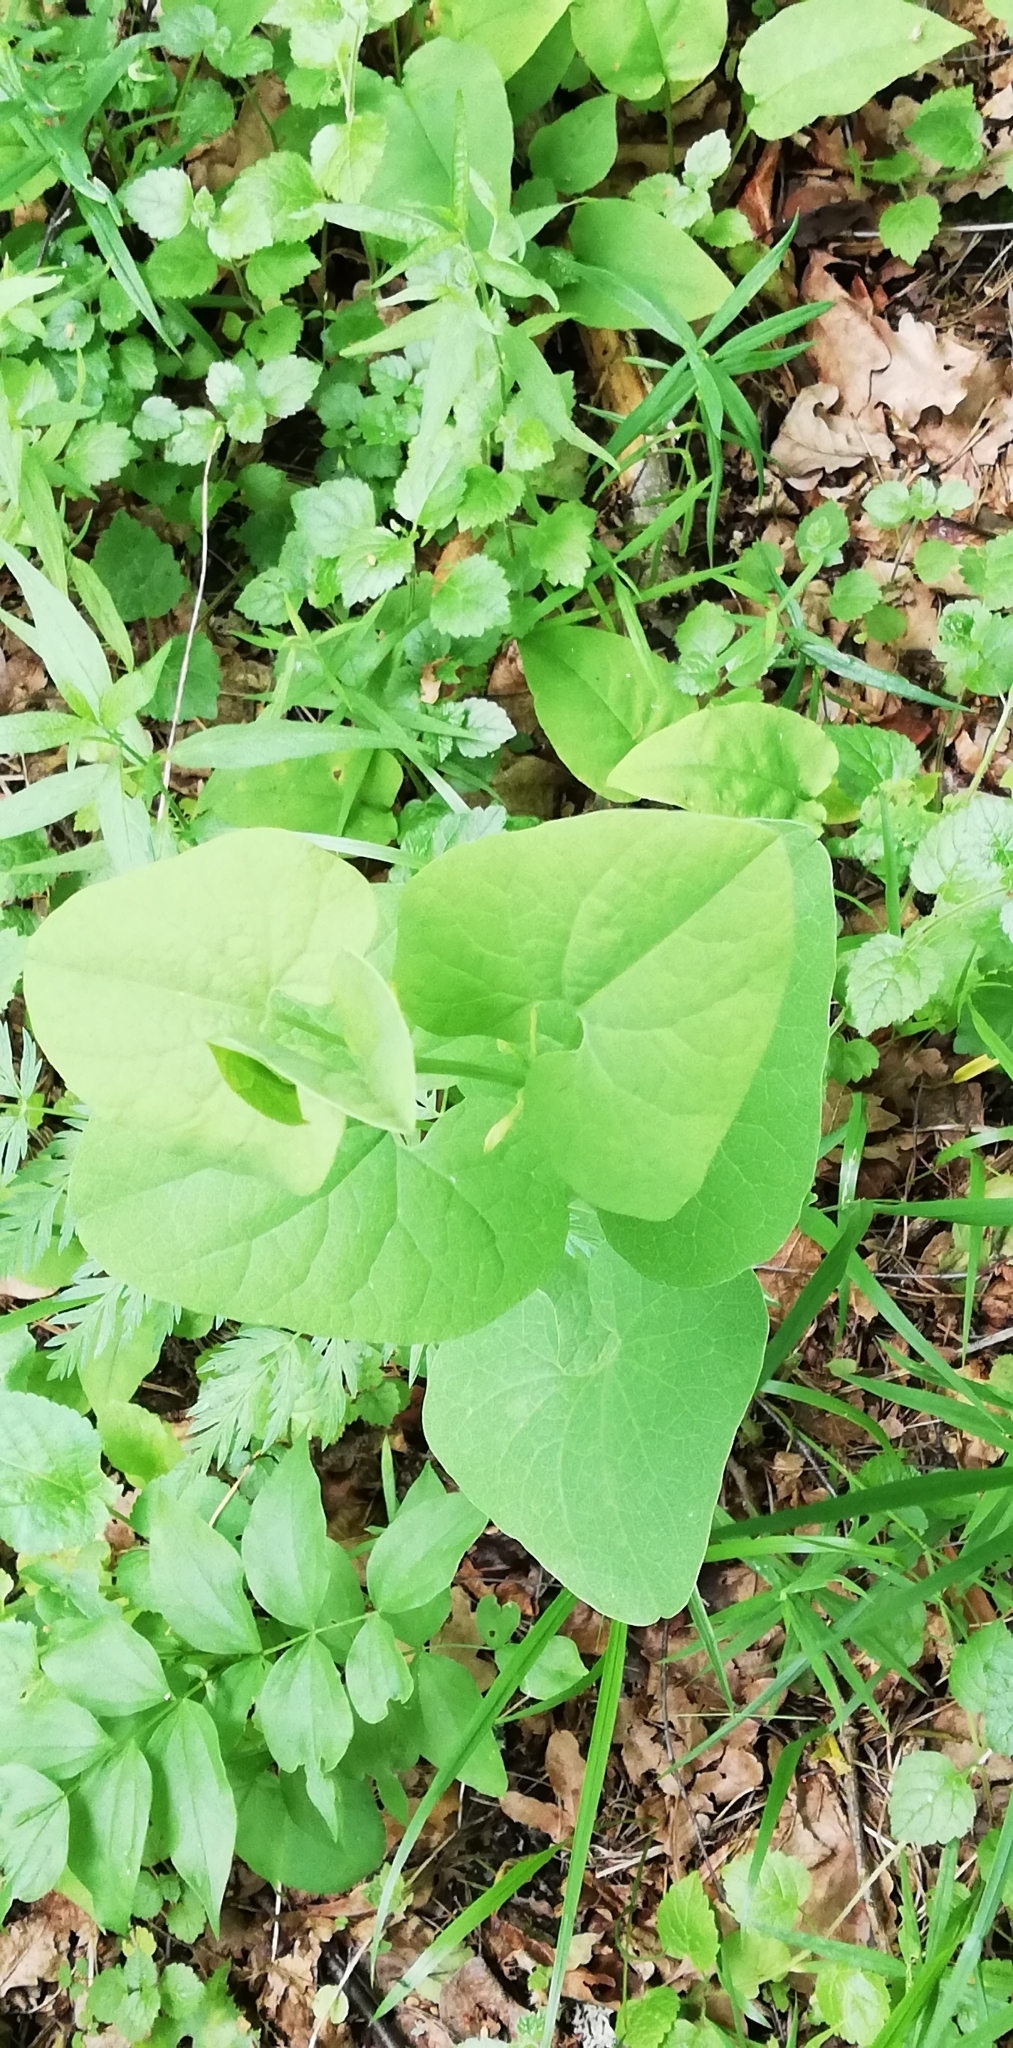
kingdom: Plantae
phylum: Tracheophyta
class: Magnoliopsida
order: Piperales
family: Aristolochiaceae
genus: Aristolochia
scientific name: Aristolochia clematitis
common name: Birthwort
